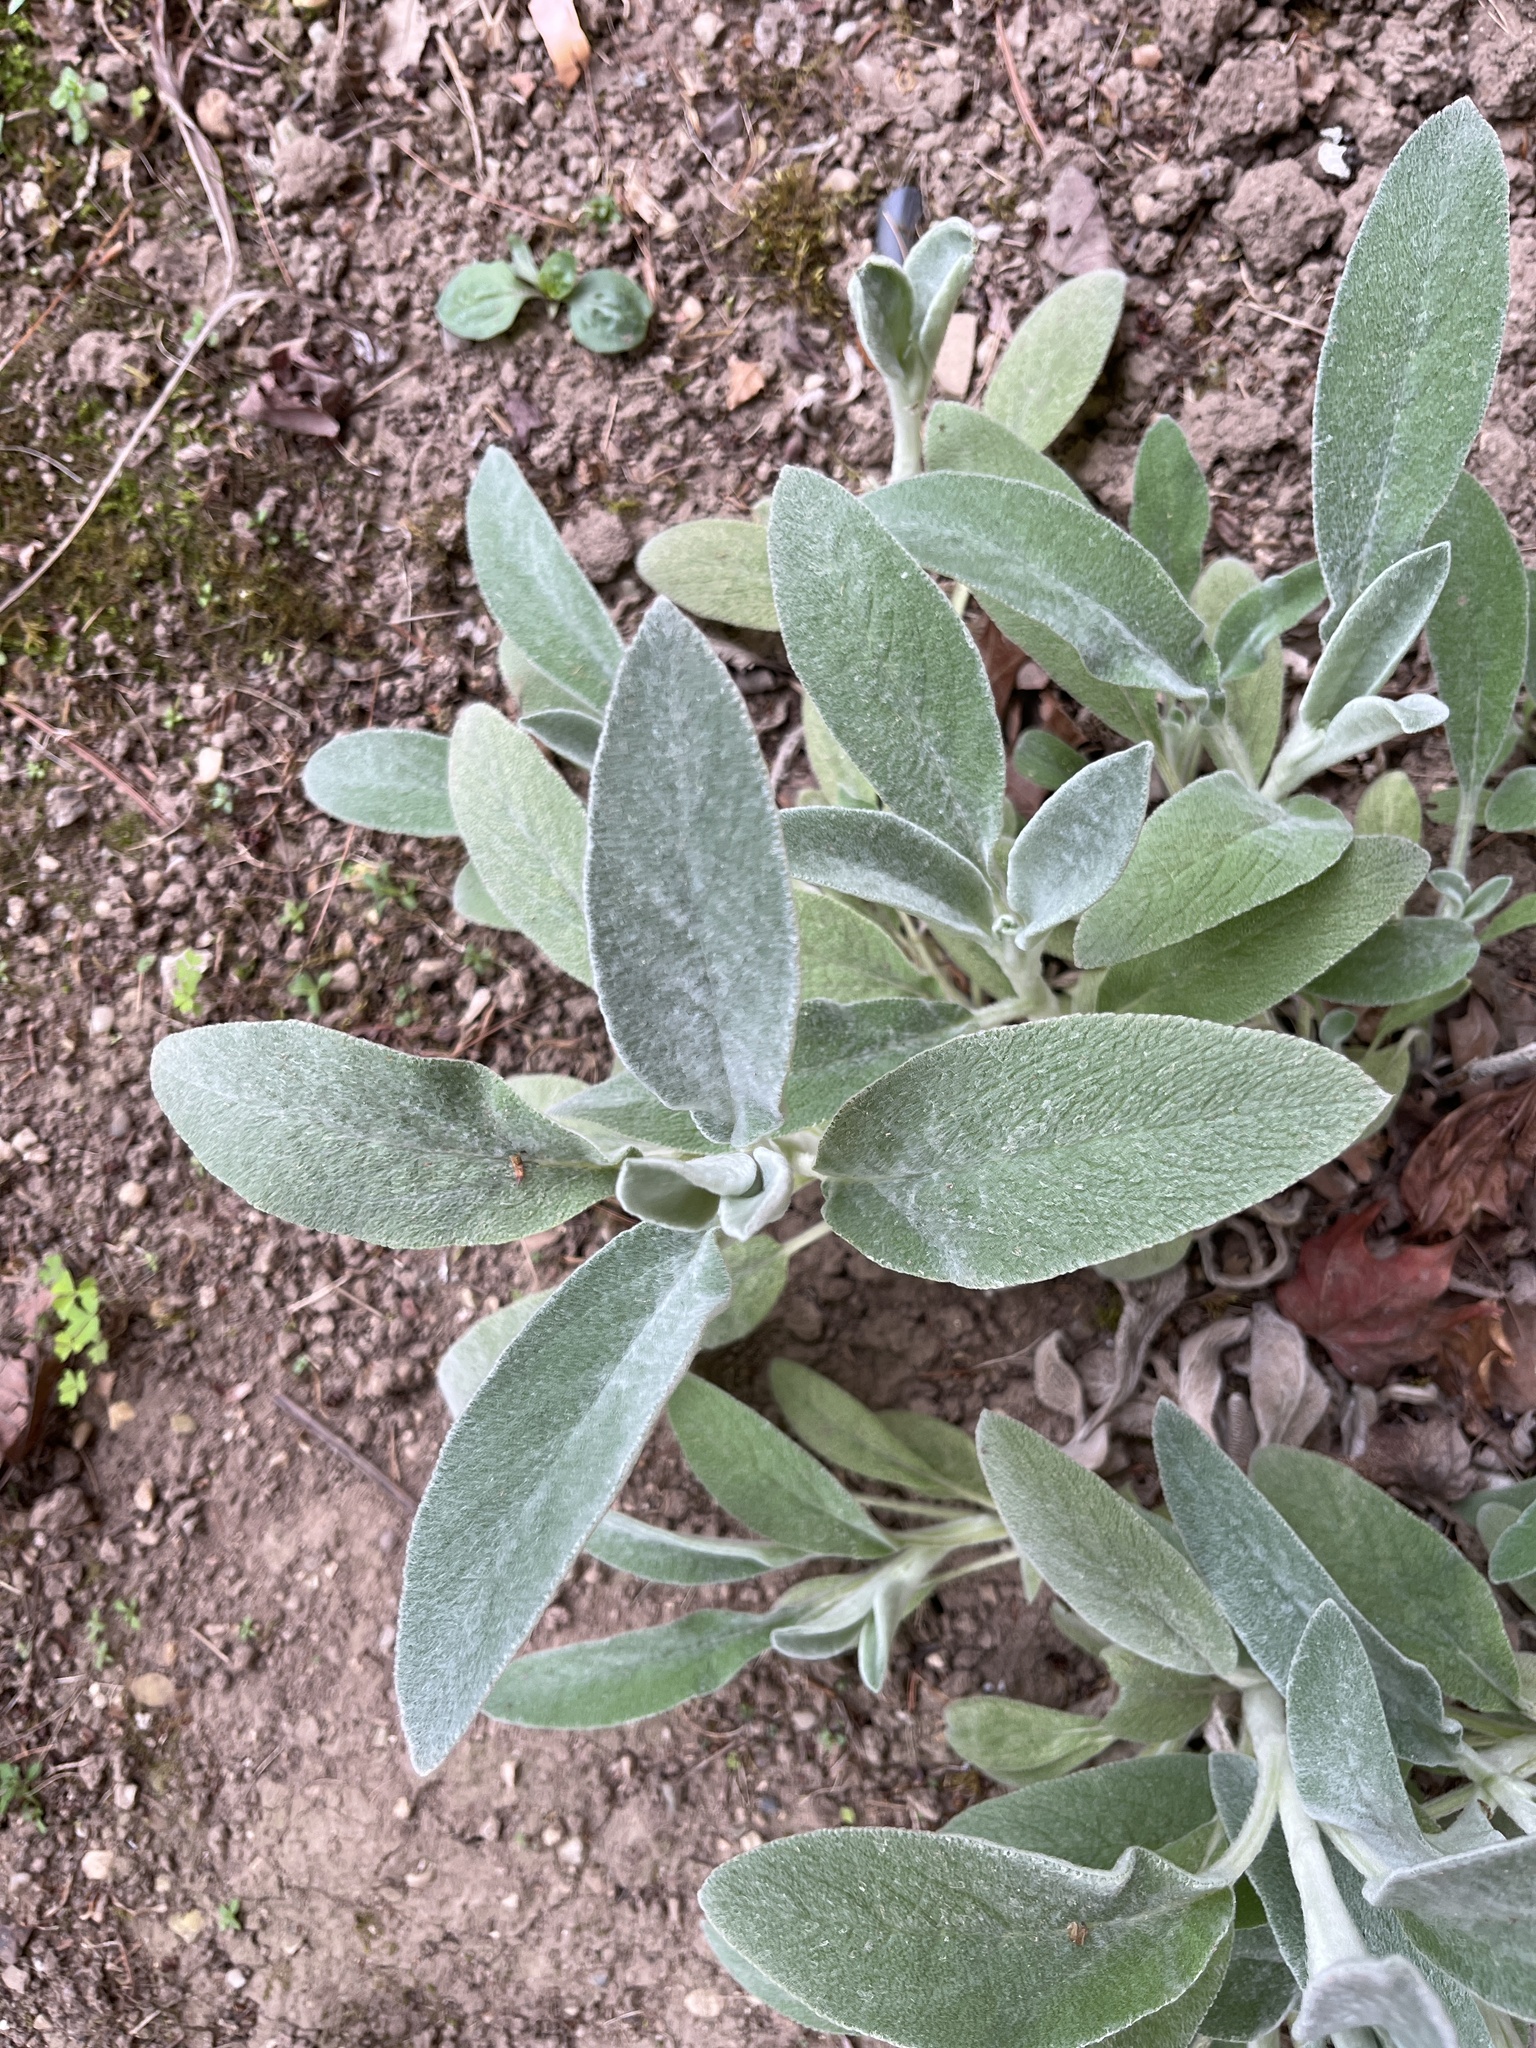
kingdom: Plantae
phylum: Tracheophyta
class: Magnoliopsida
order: Lamiales
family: Lamiaceae
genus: Stachys
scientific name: Stachys byzantina
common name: Lamb's-ear
